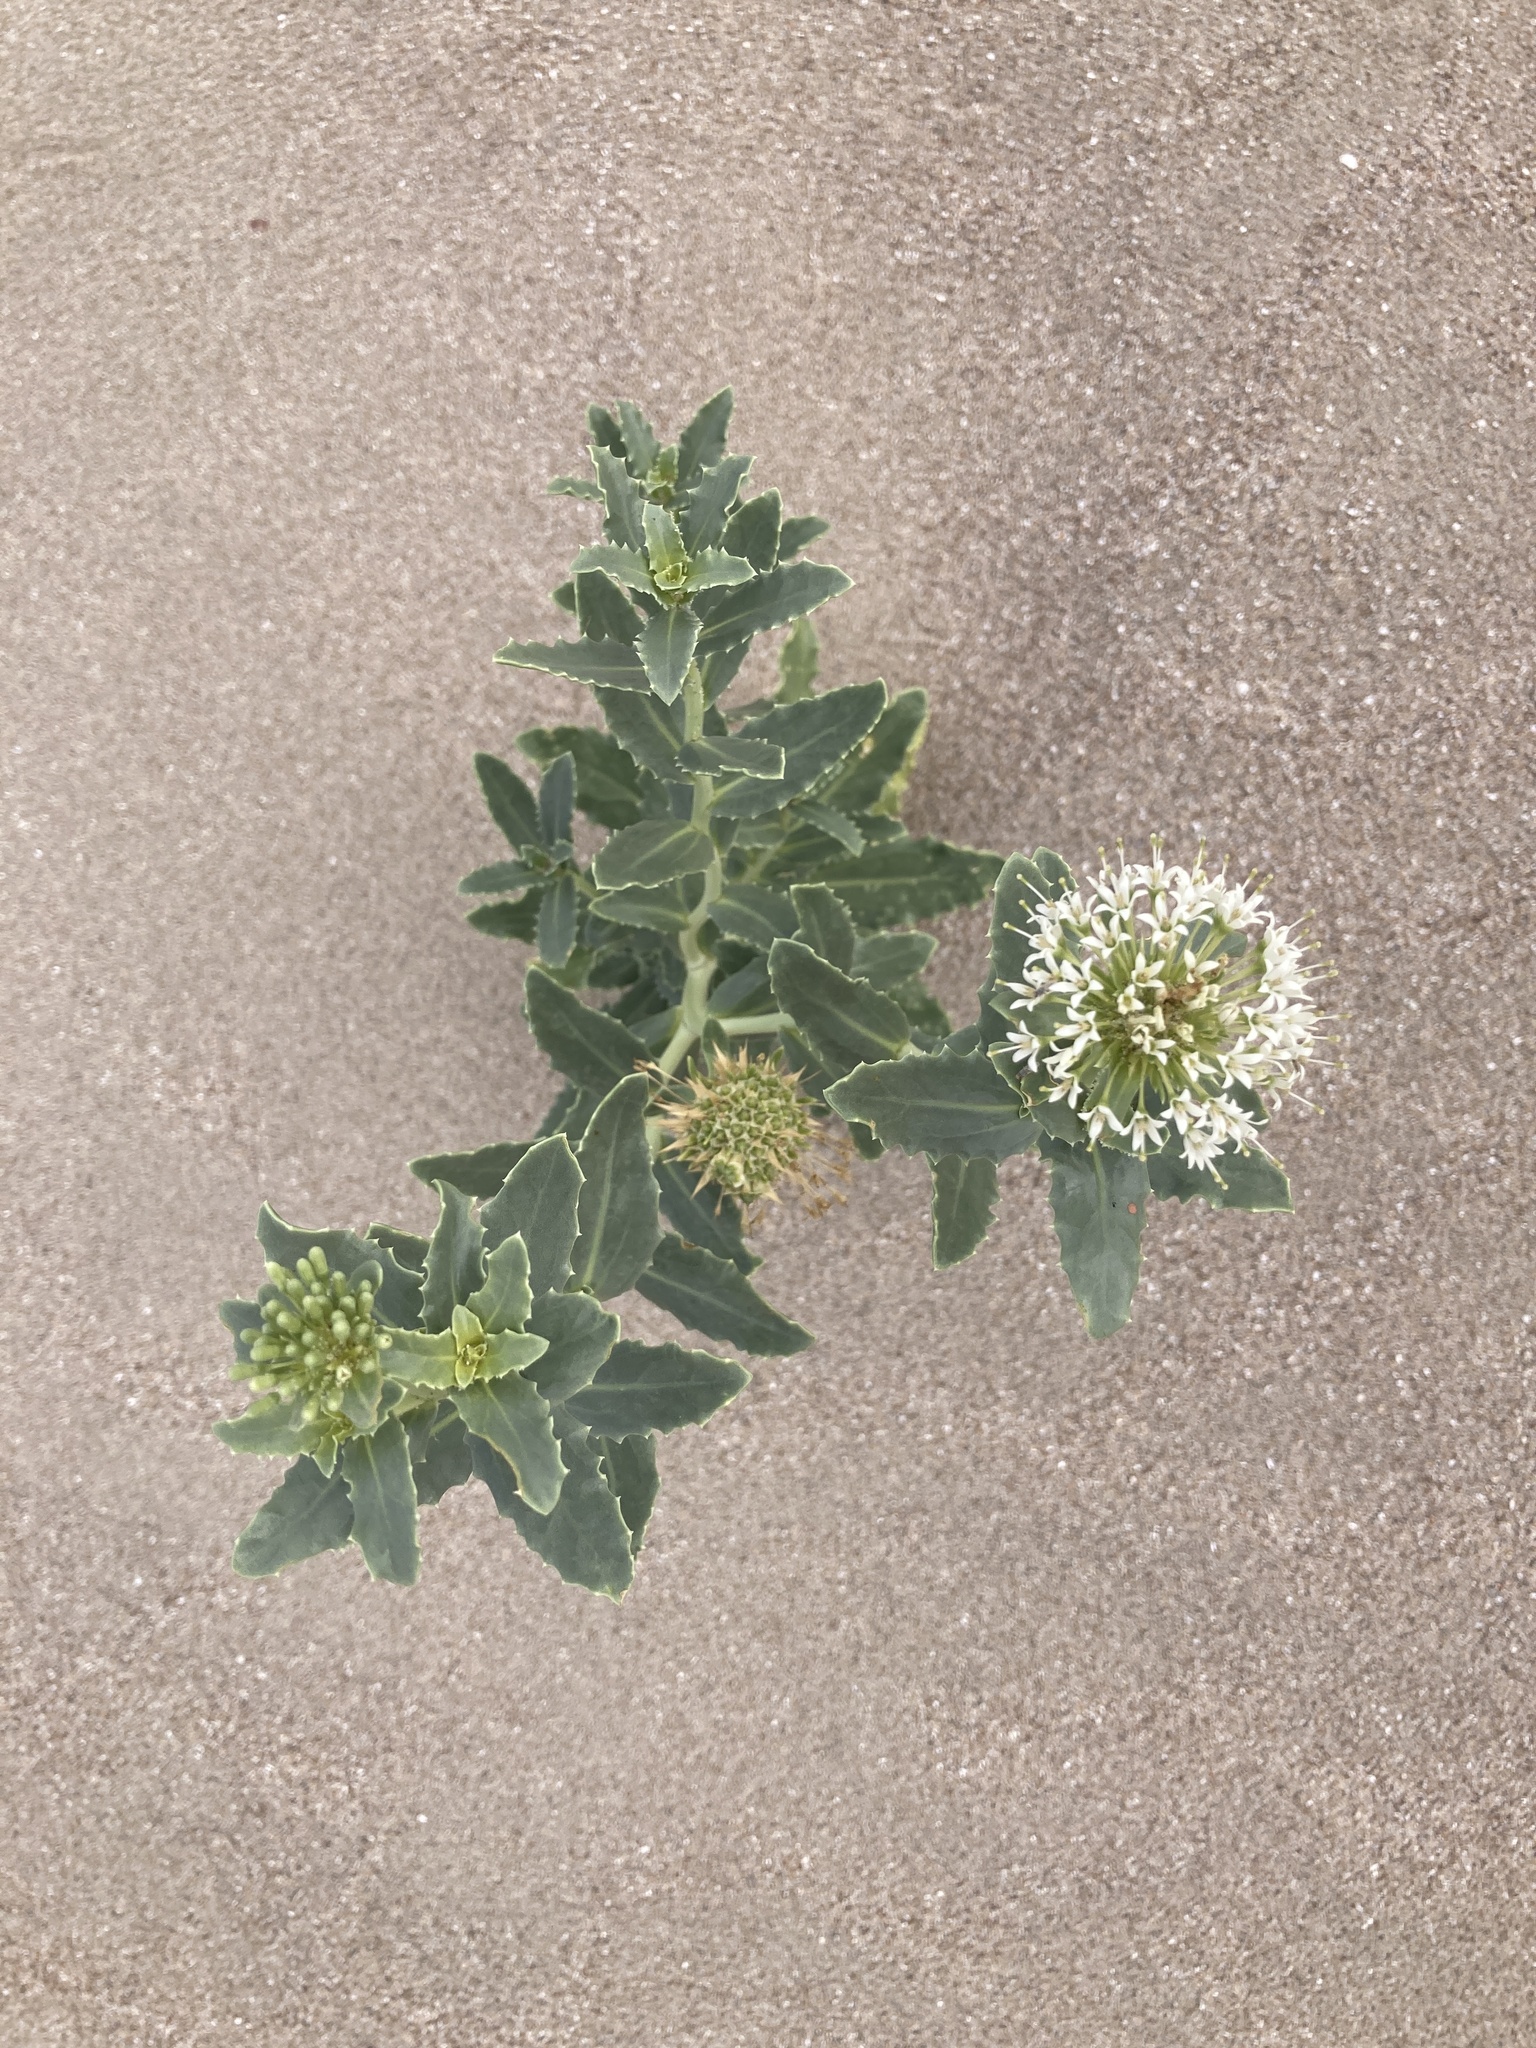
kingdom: Plantae
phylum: Tracheophyta
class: Magnoliopsida
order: Asterales
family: Calyceraceae
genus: Calycera
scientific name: Calycera crassifolia
